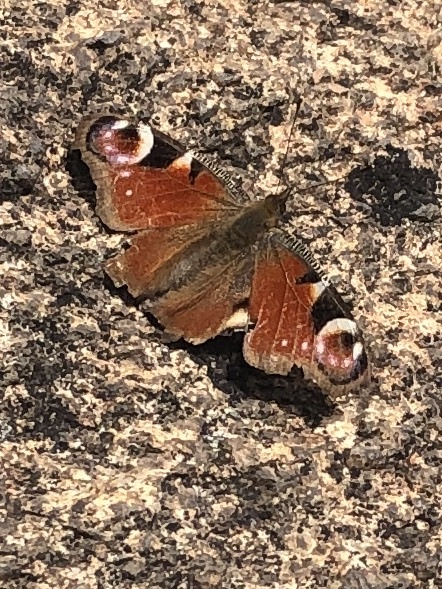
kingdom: Animalia
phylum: Arthropoda
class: Insecta
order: Lepidoptera
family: Nymphalidae
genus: Aglais
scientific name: Aglais io
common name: Peacock
